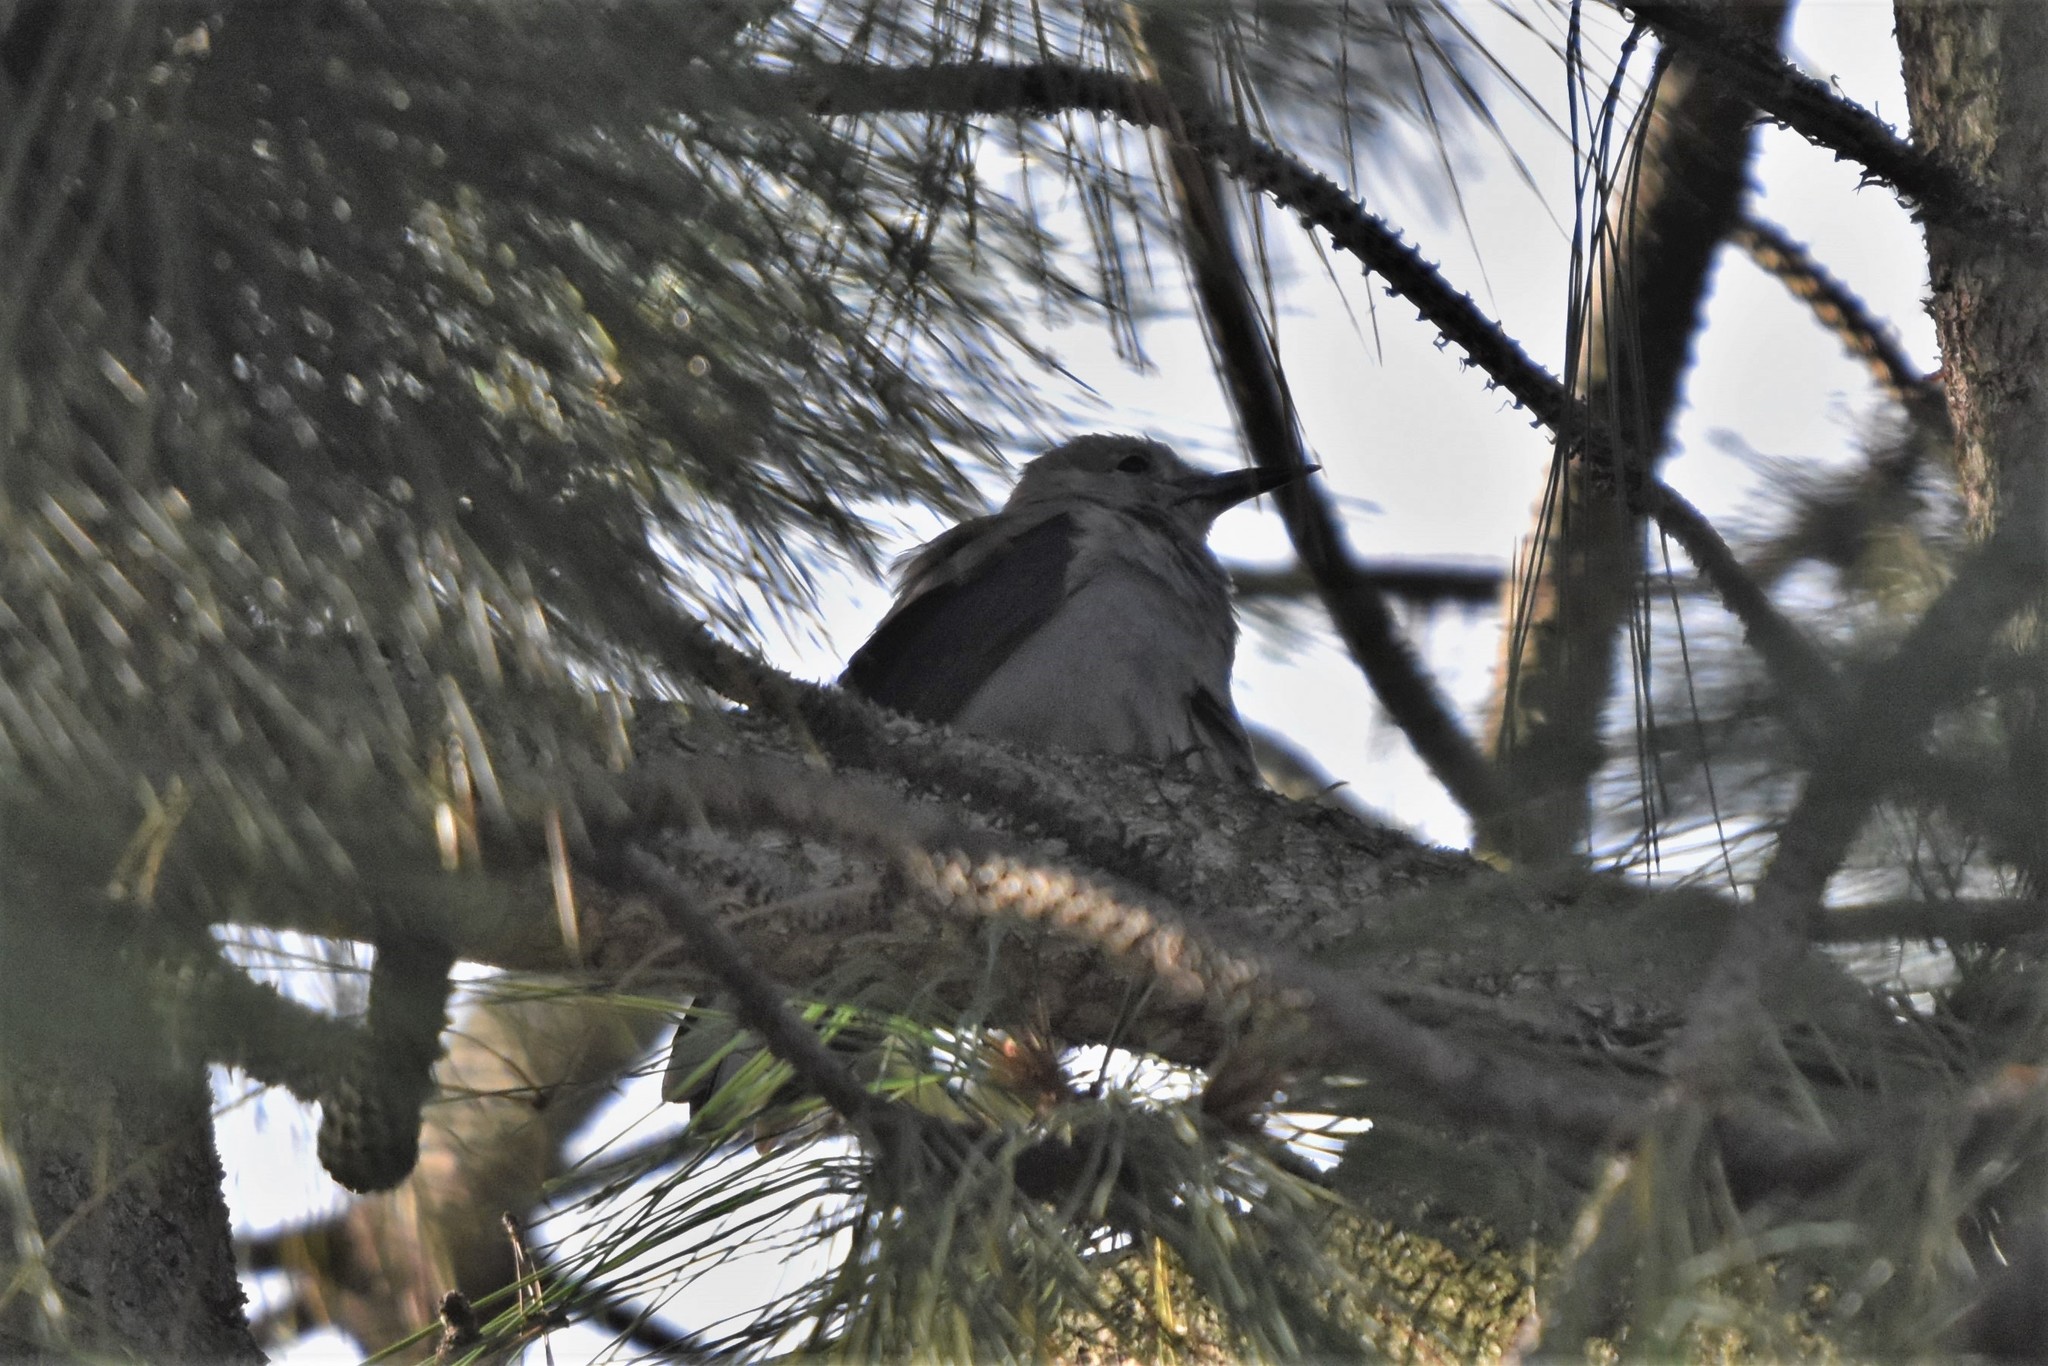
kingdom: Animalia
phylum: Chordata
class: Aves
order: Passeriformes
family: Corvidae
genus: Nucifraga
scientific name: Nucifraga columbiana
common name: Clark's nutcracker
